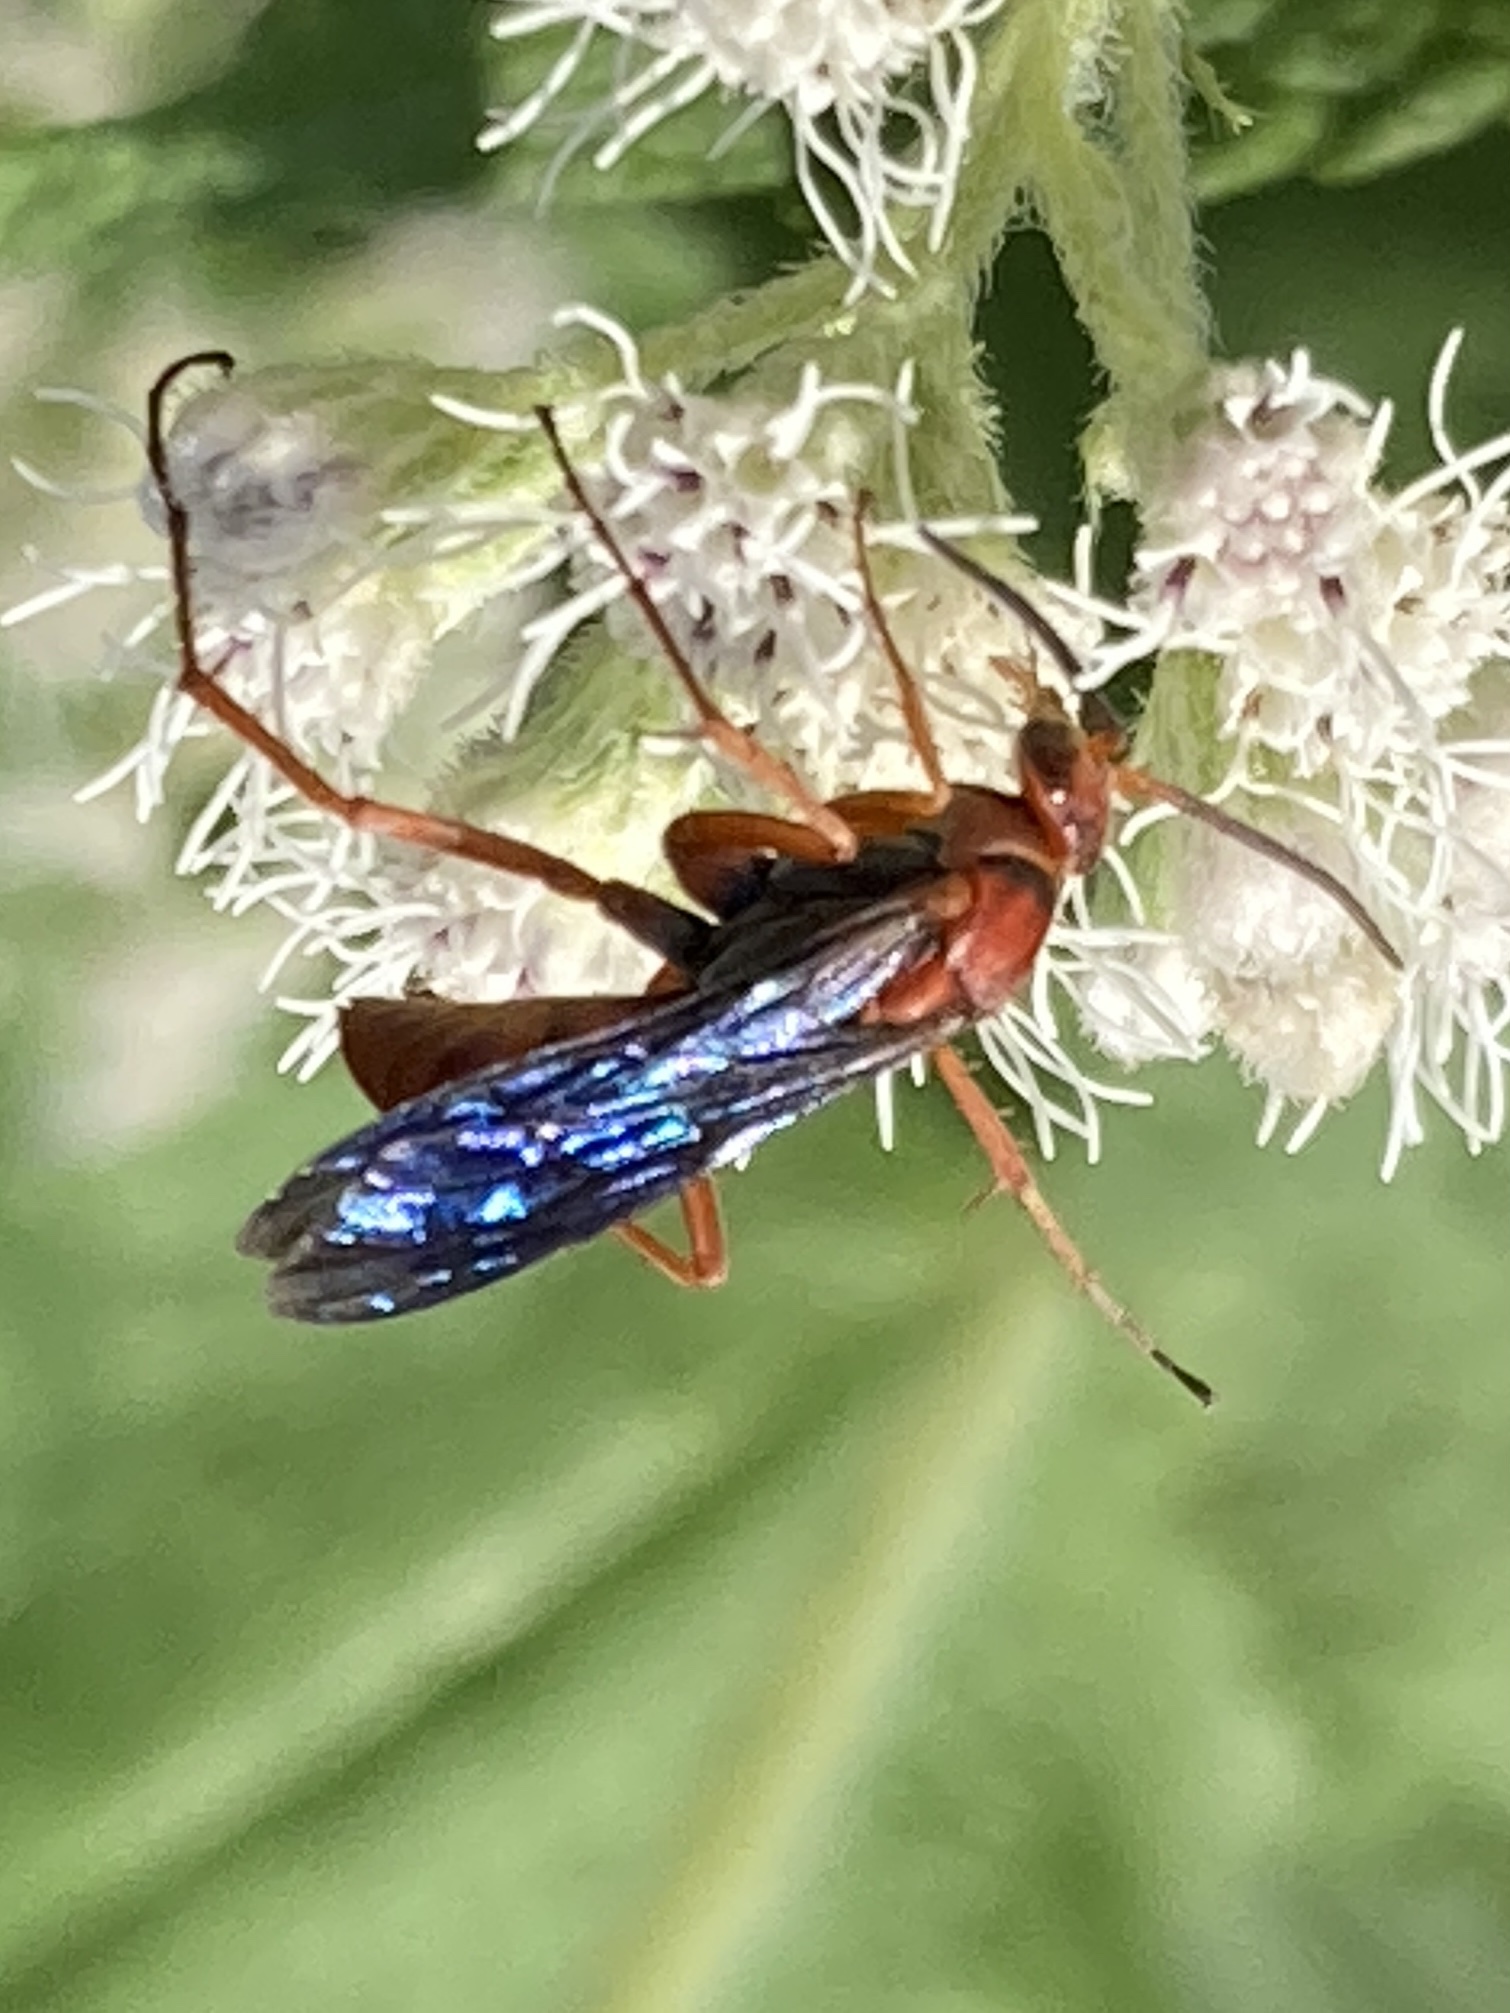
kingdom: Animalia
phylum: Arthropoda
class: Insecta
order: Hymenoptera
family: Pompilidae
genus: Tachypompilus
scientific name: Tachypompilus ferrugineus
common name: Rusty spider wasp
